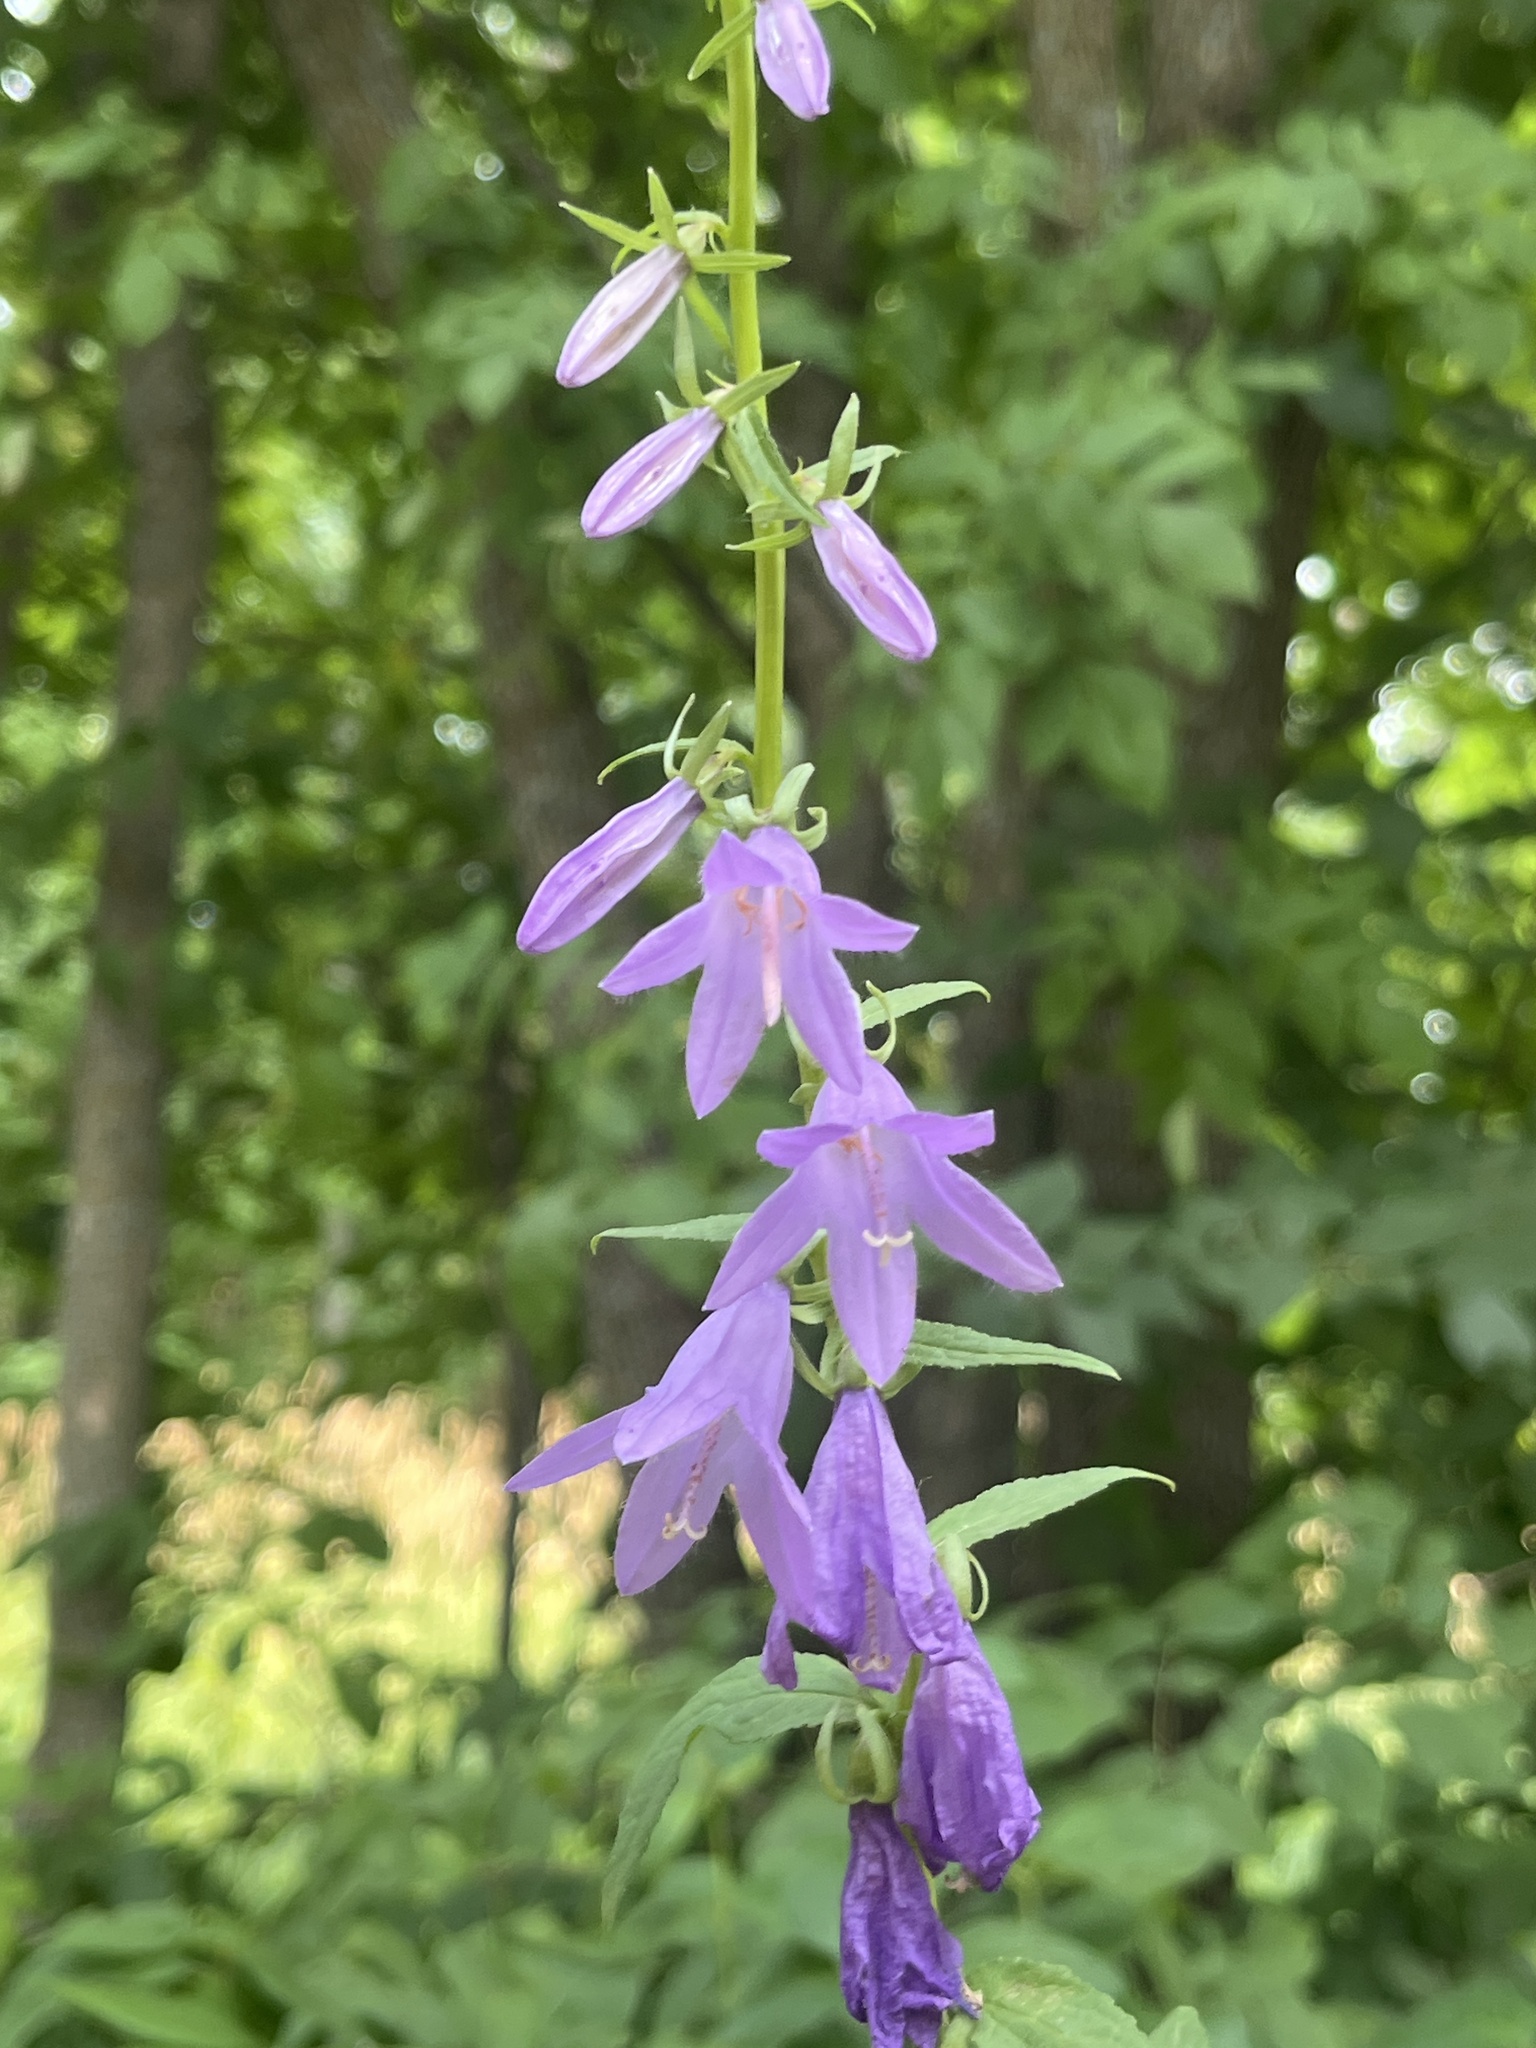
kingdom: Plantae
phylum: Tracheophyta
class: Magnoliopsida
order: Asterales
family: Campanulaceae
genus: Campanula
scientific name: Campanula rapunculoides
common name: Creeping bellflower
